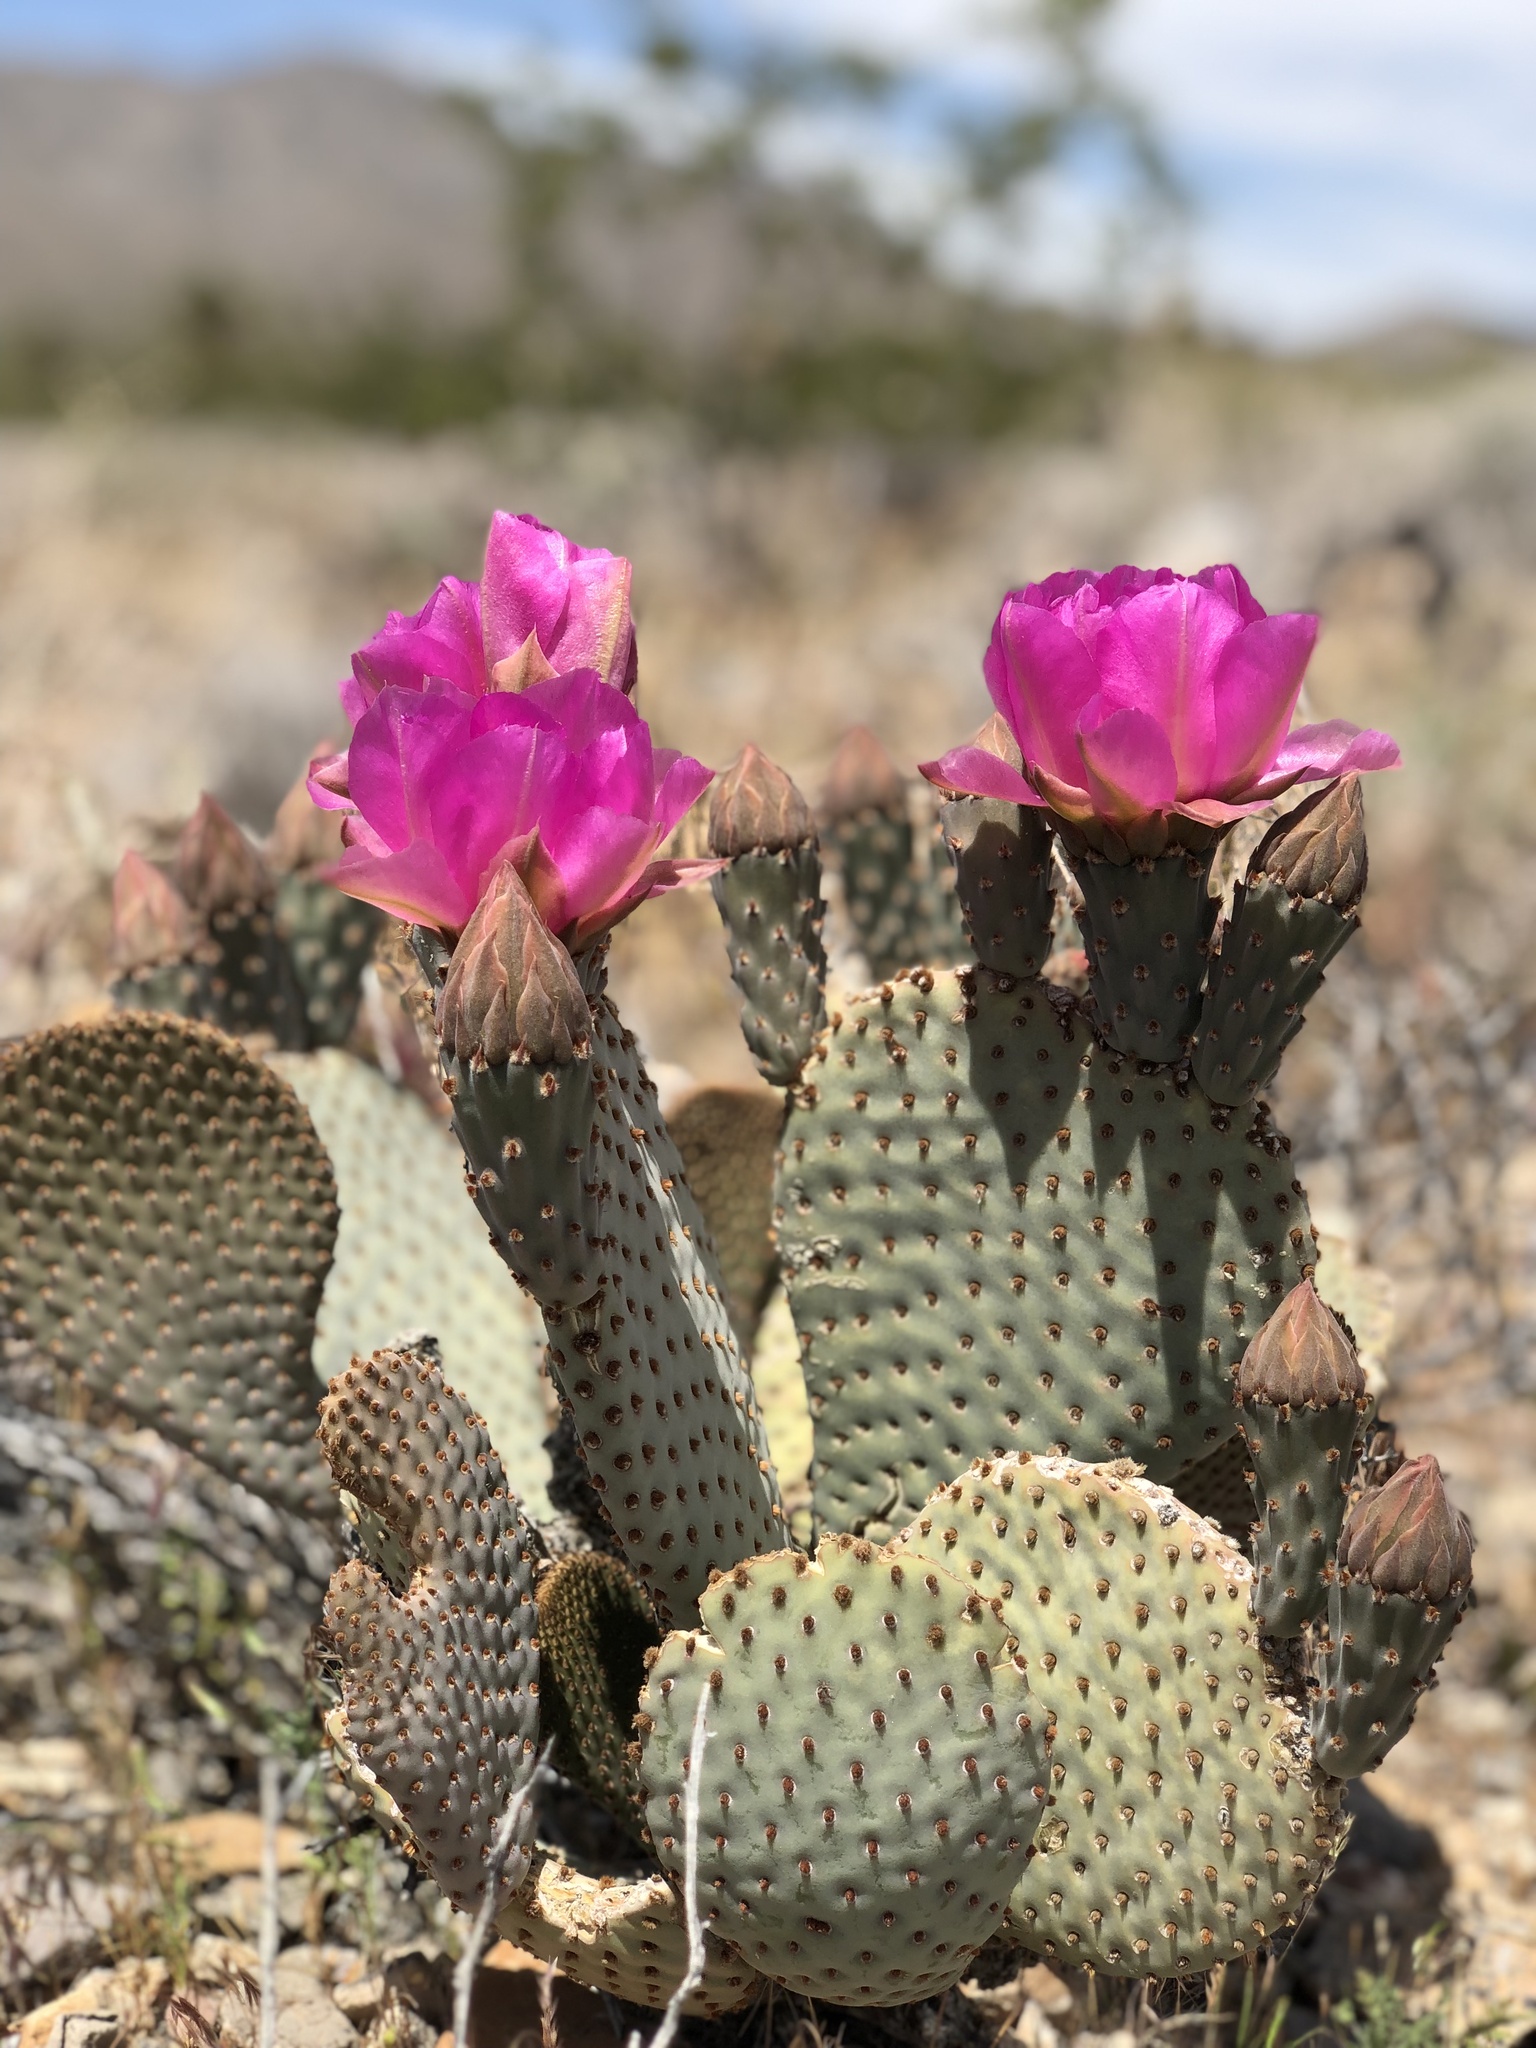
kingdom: Plantae
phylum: Tracheophyta
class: Magnoliopsida
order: Caryophyllales
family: Cactaceae
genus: Opuntia
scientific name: Opuntia basilaris
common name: Beavertail prickly-pear
